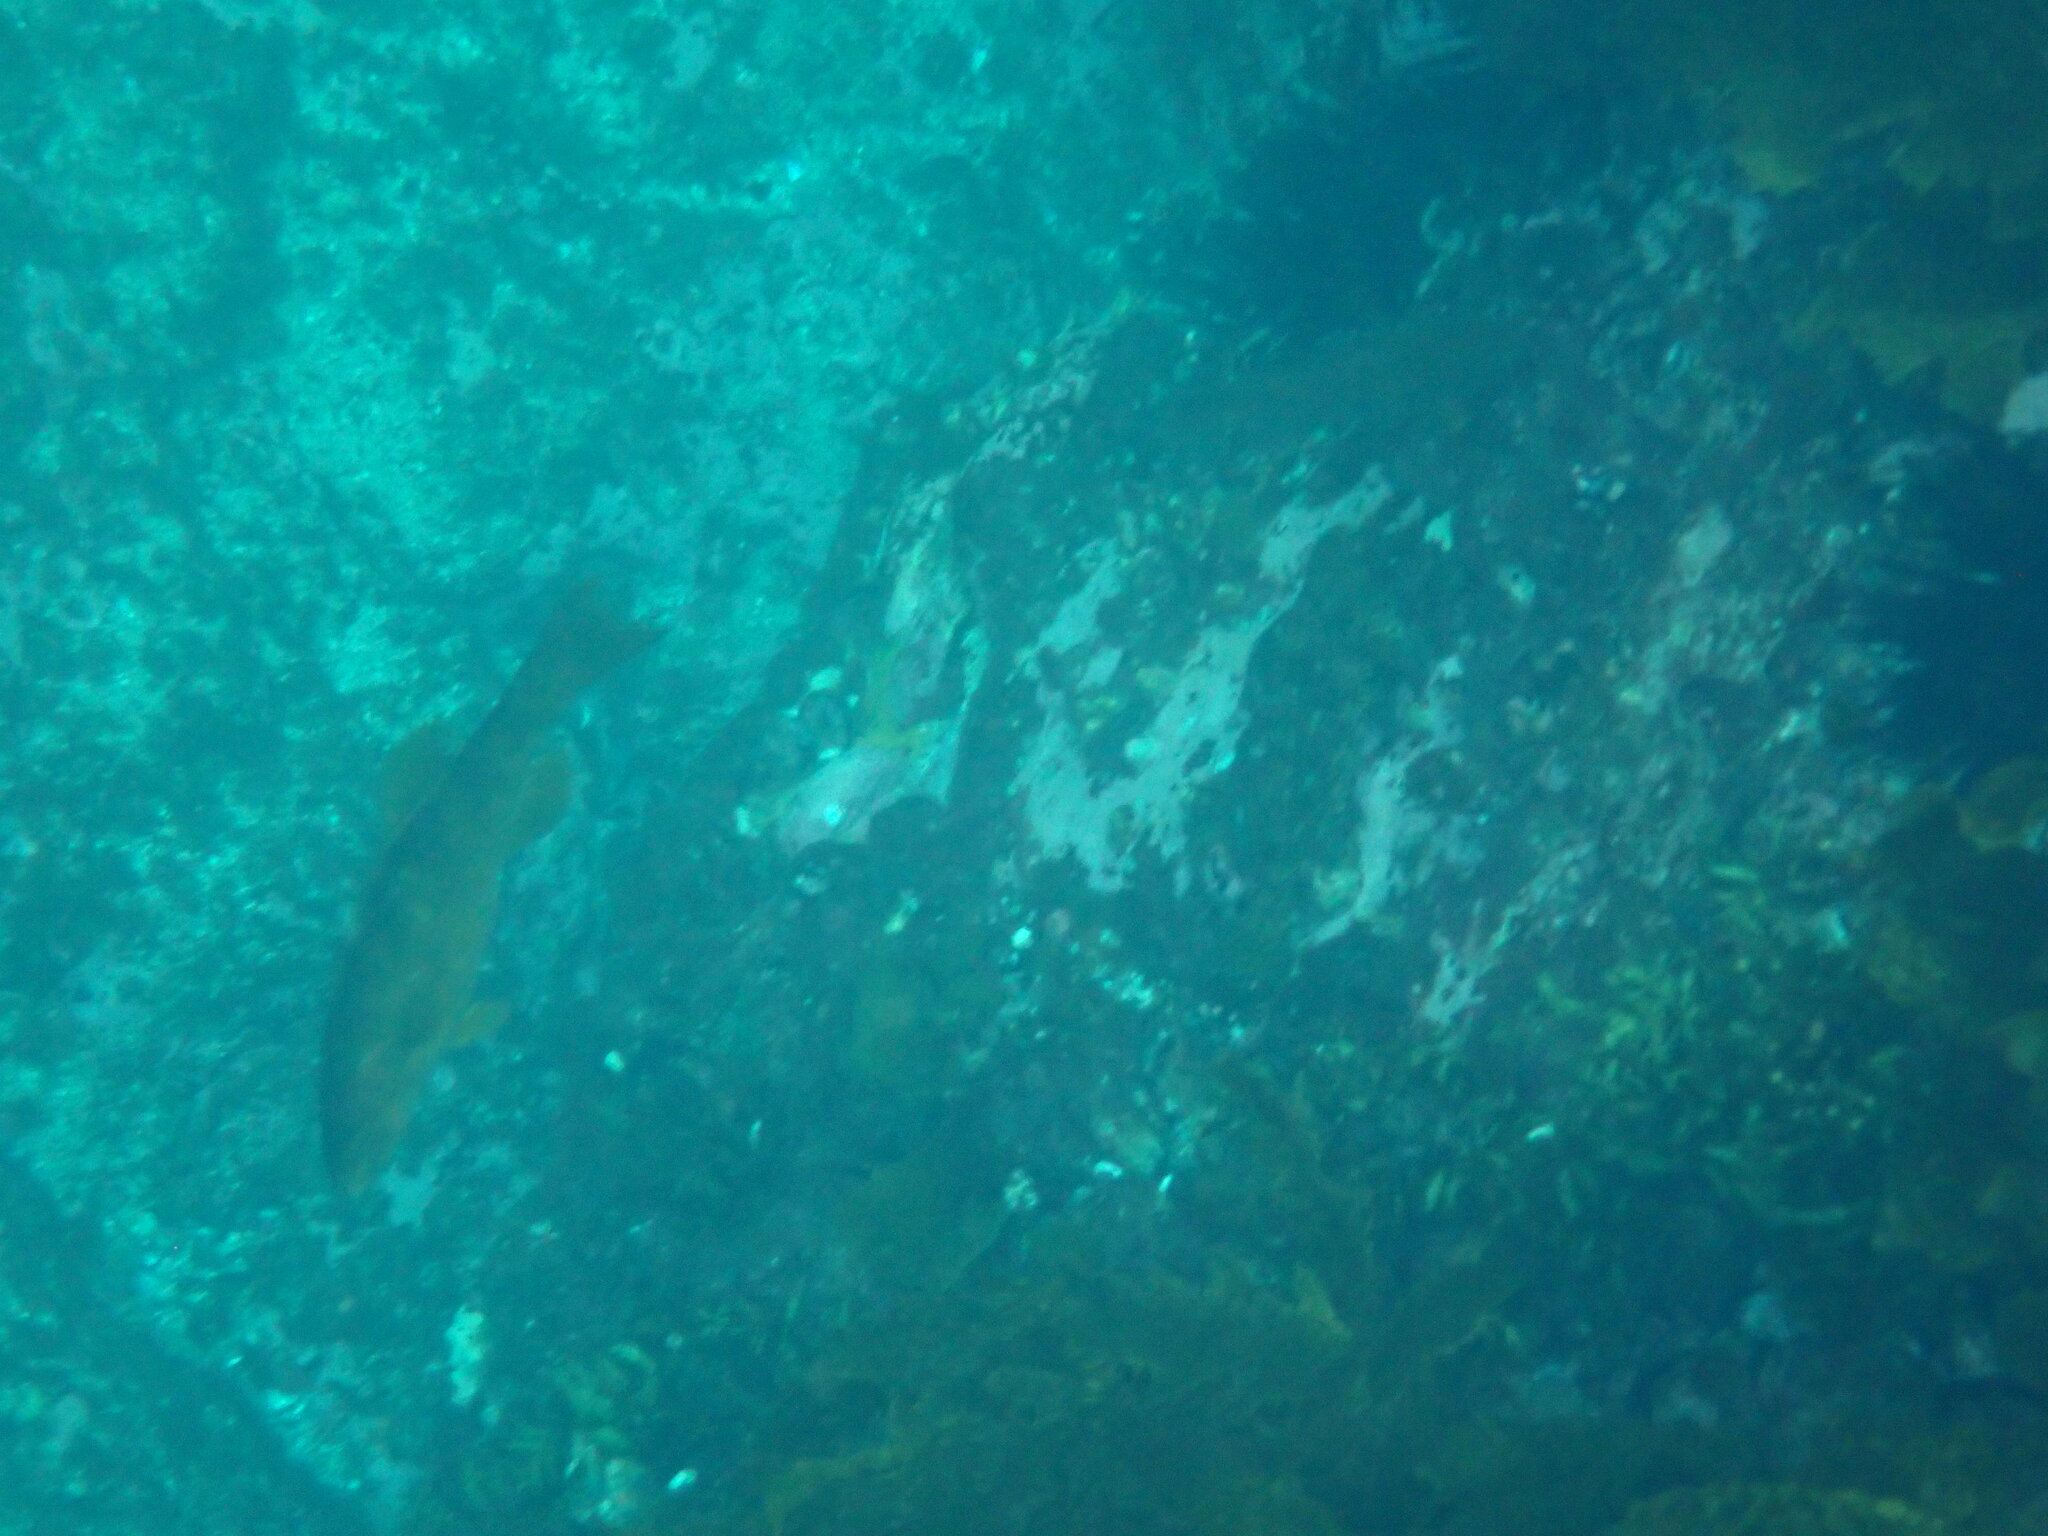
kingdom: Animalia
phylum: Chordata
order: Perciformes
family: Odacidae
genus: Olisthops
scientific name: Olisthops cyanomelas
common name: Herring cale
